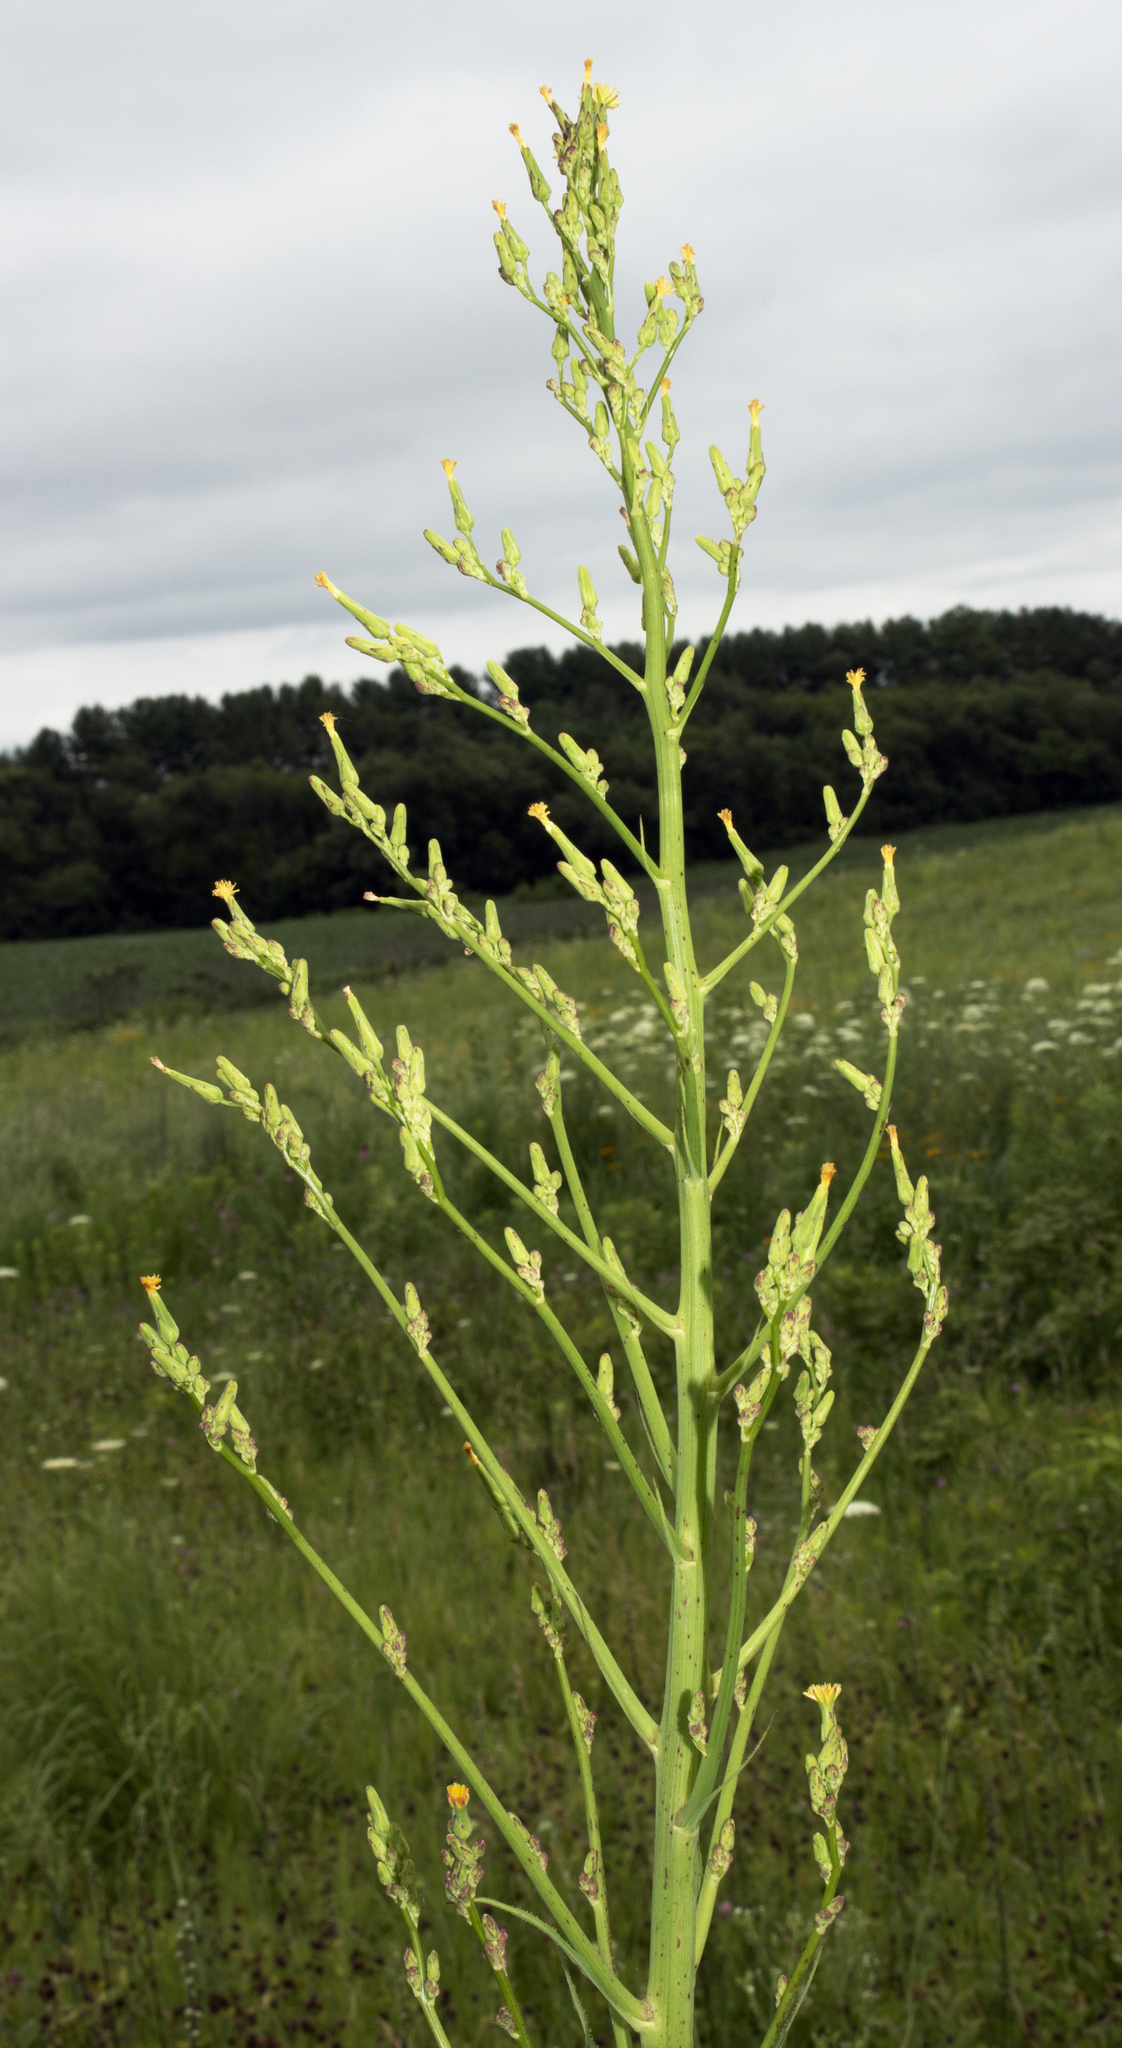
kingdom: Plantae
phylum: Tracheophyta
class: Magnoliopsida
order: Asterales
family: Asteraceae
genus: Lactuca
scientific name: Lactuca canadensis
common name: Canada lettuce
